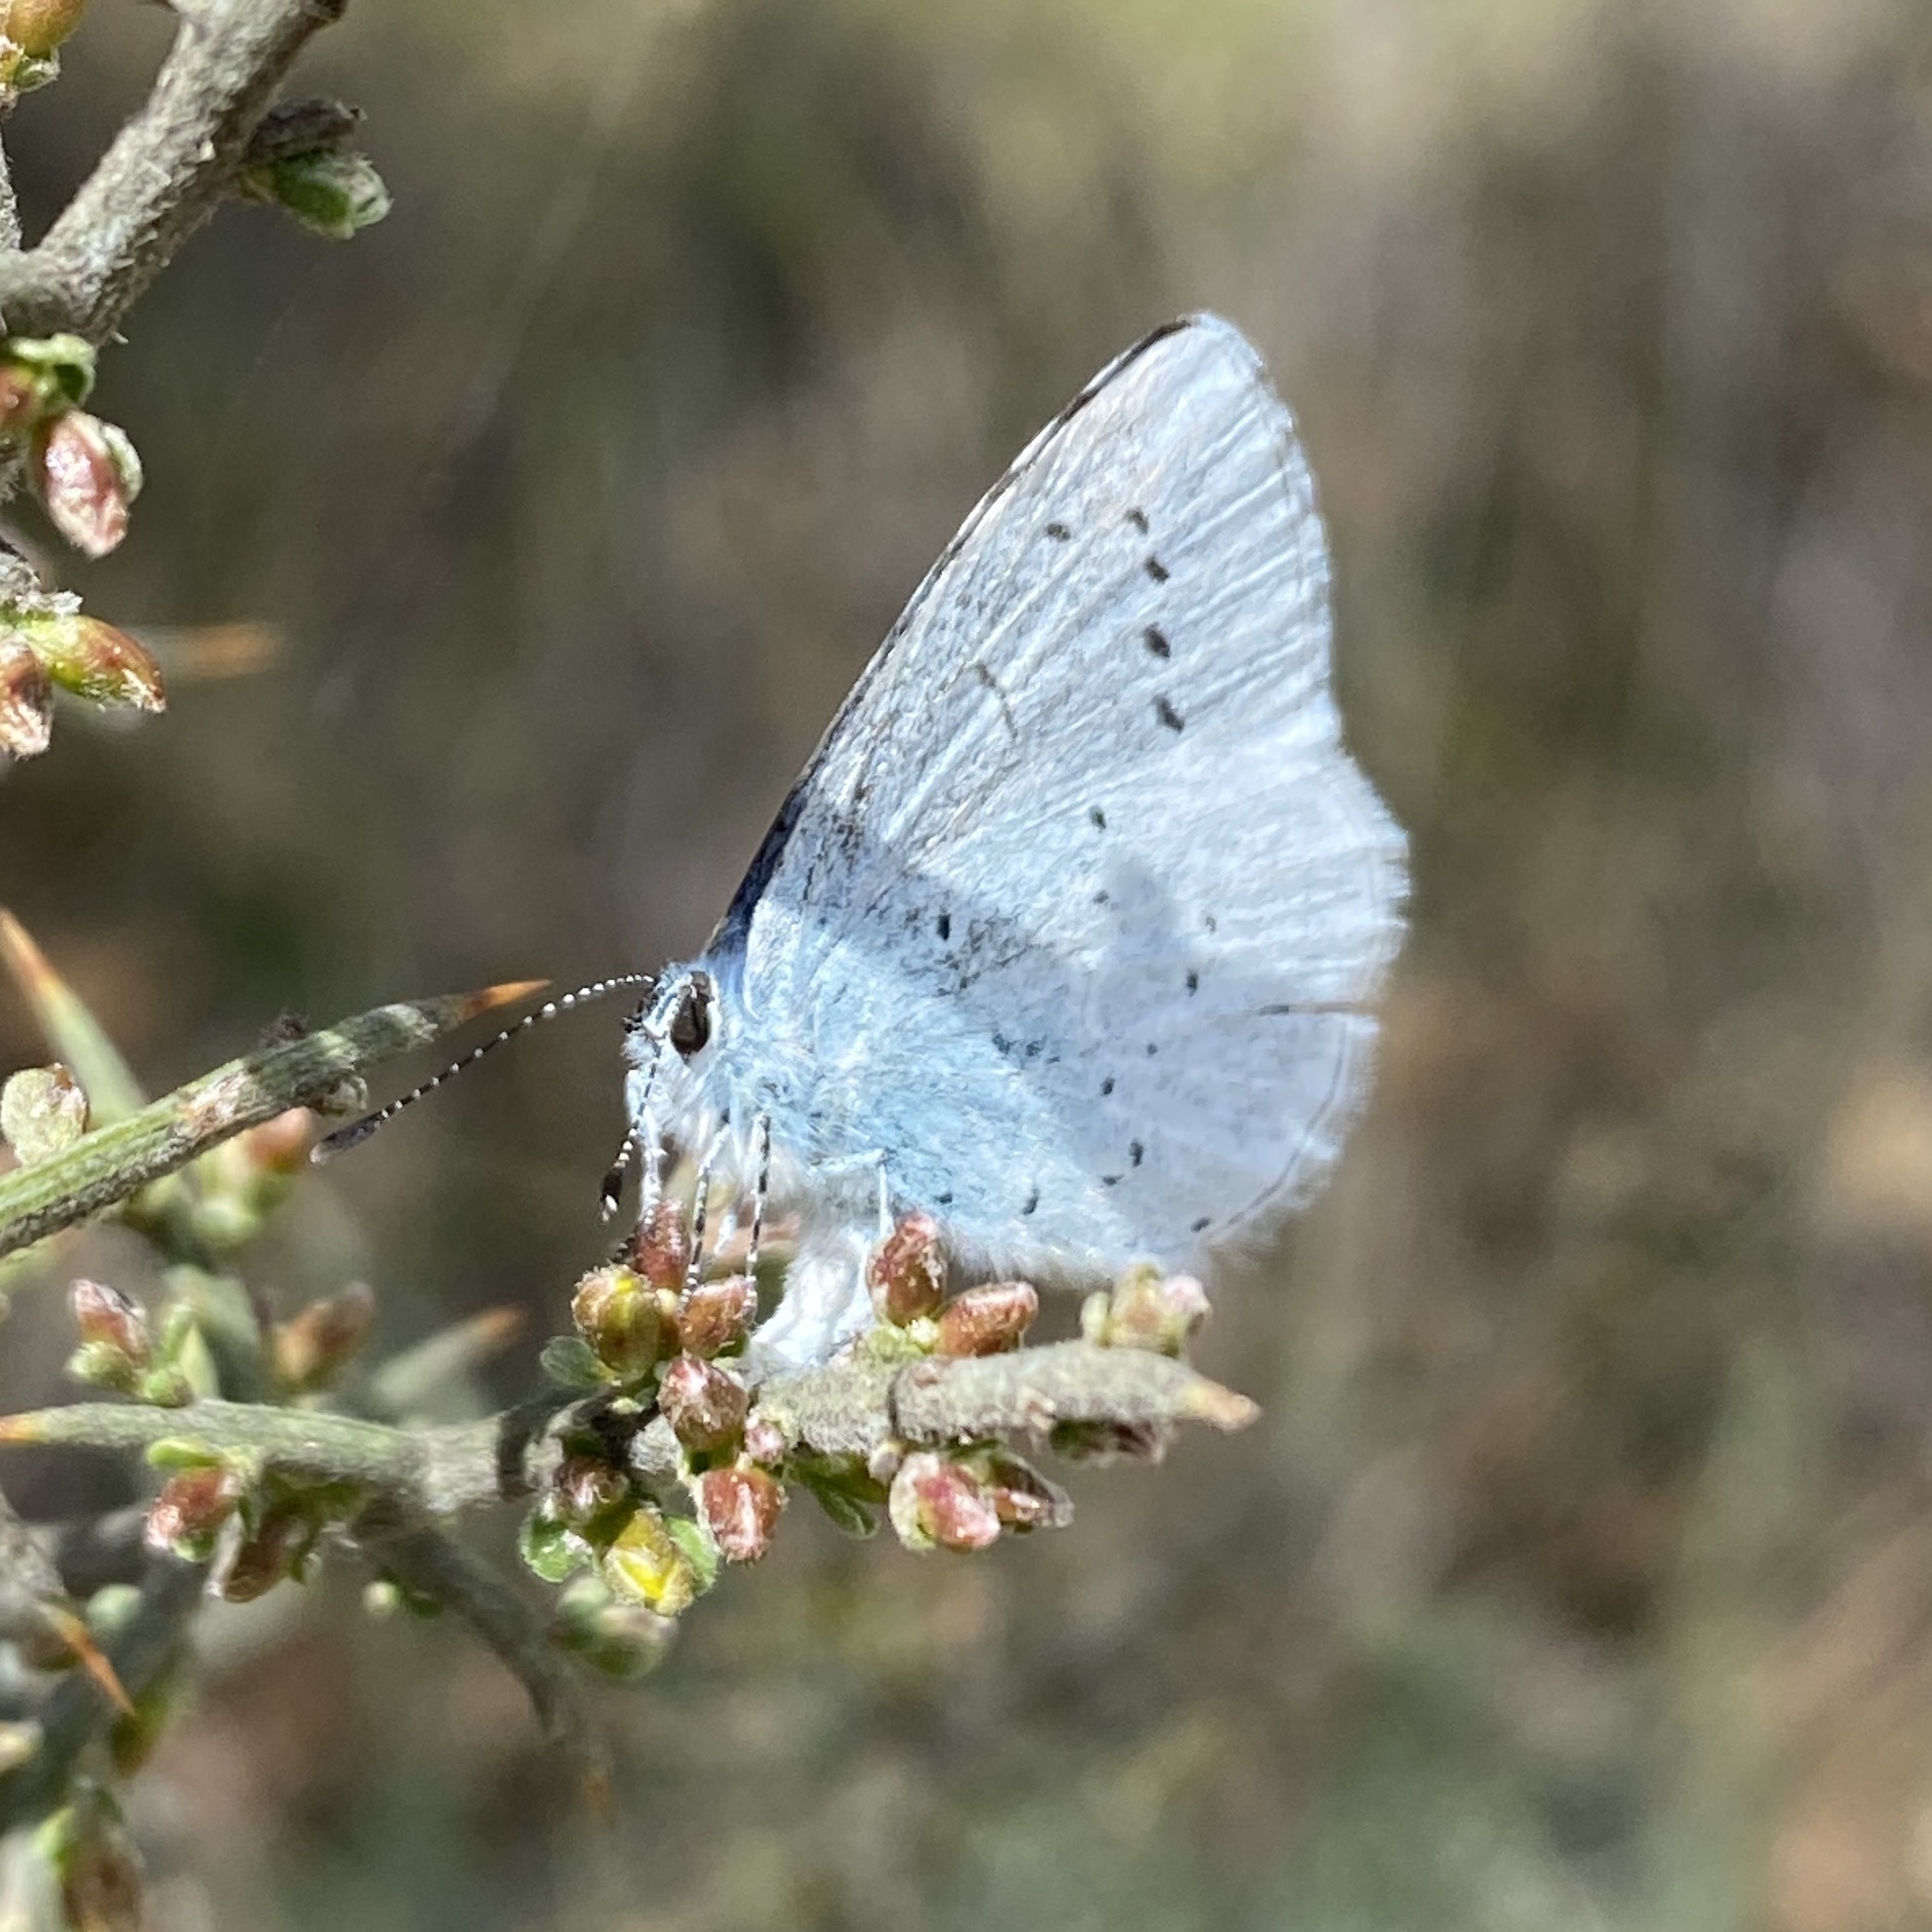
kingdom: Animalia
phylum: Arthropoda
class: Insecta
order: Lepidoptera
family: Lycaenidae
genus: Celastrina
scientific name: Celastrina argiolus
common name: Holly blue
